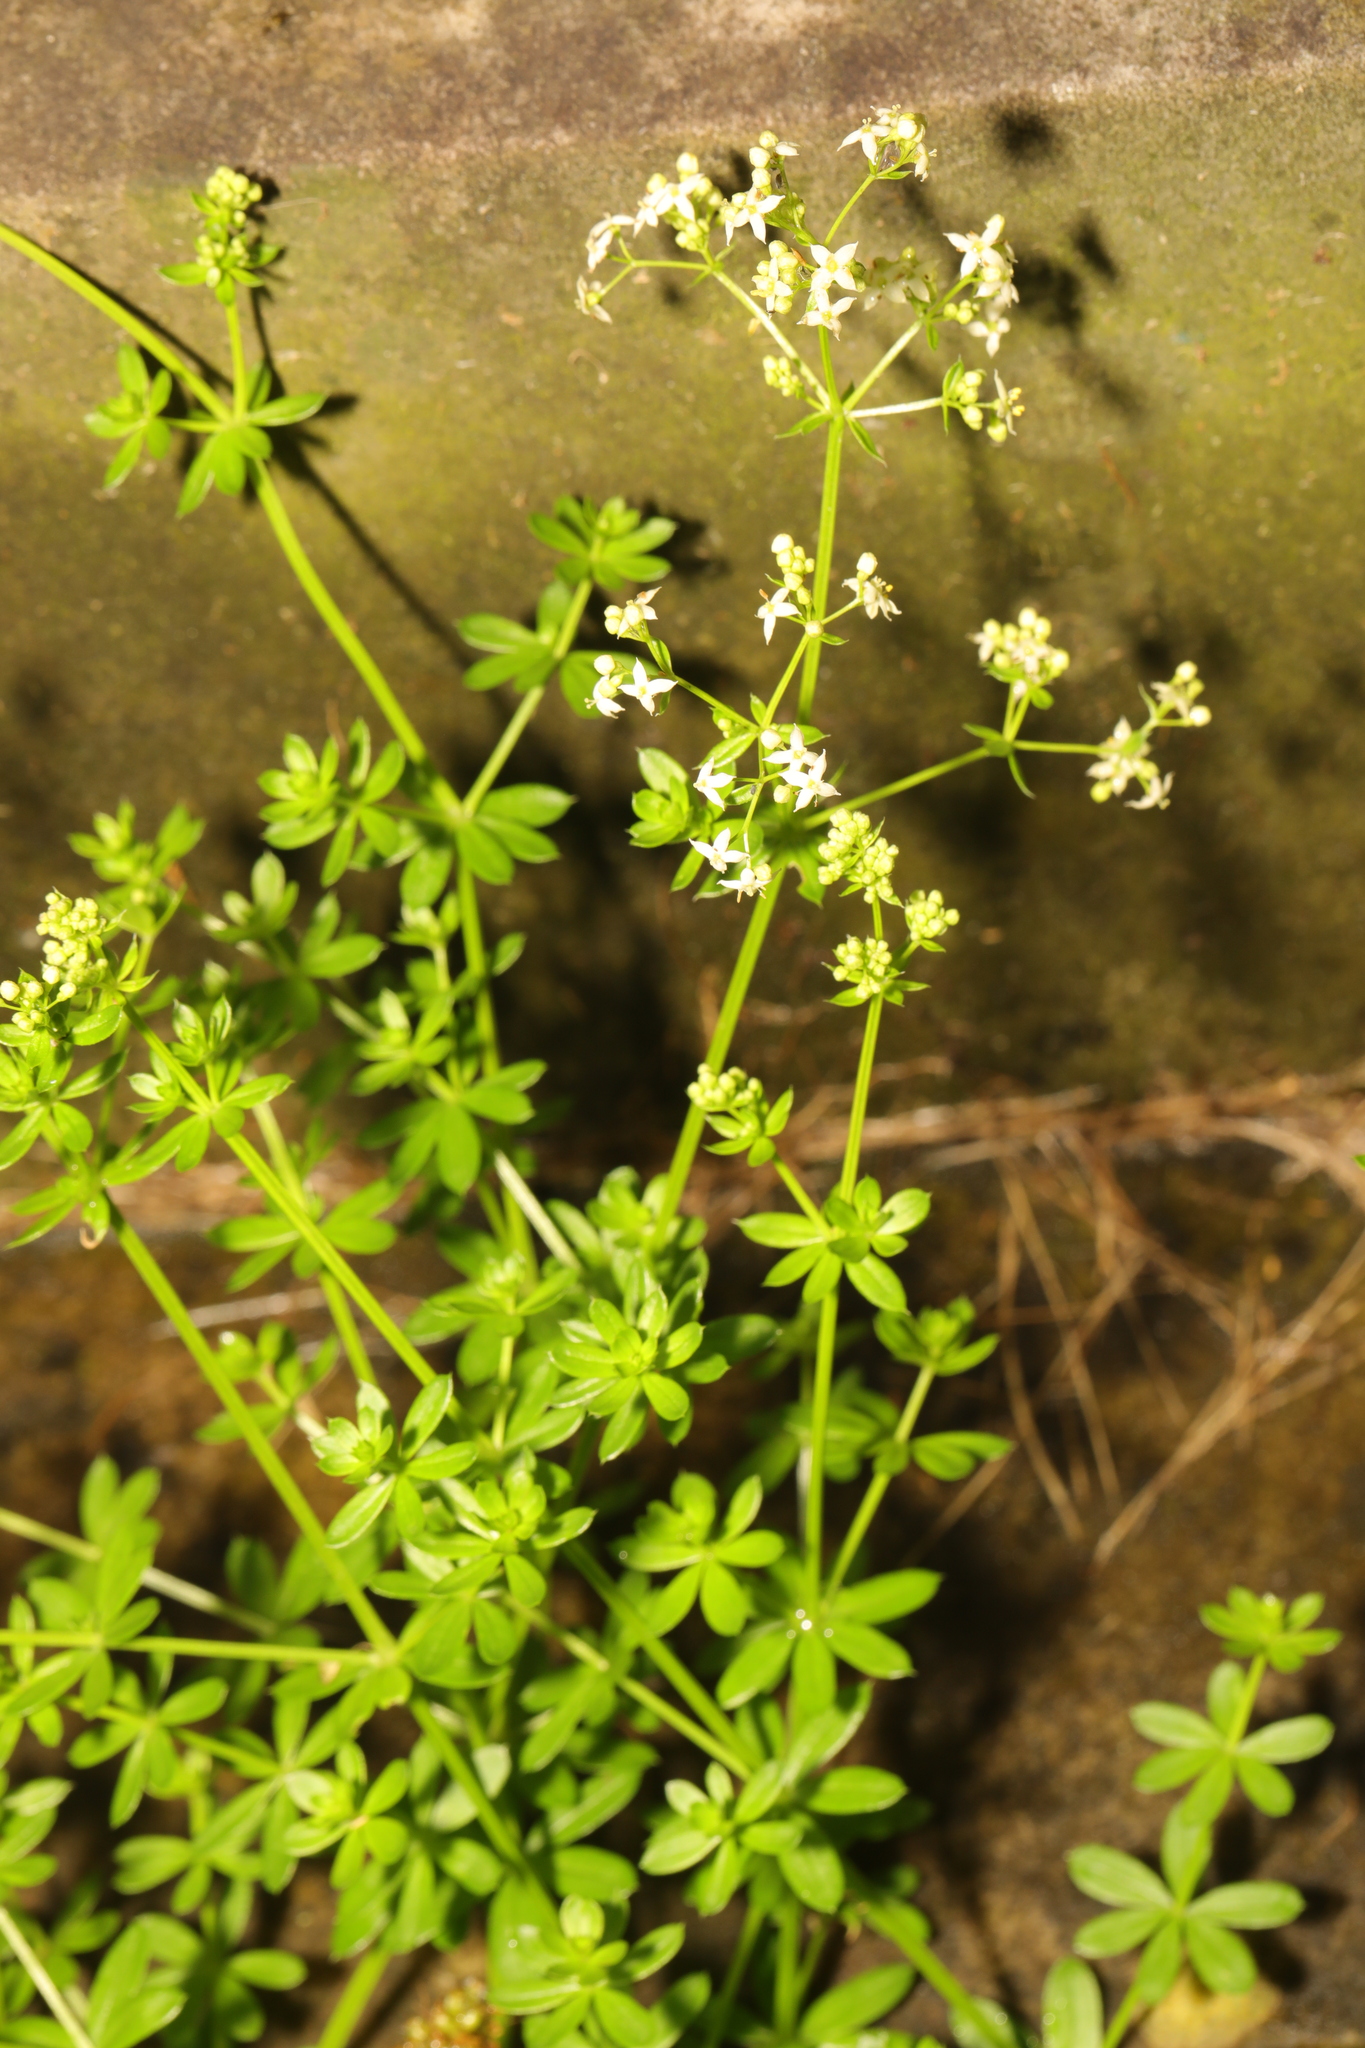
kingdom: Plantae
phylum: Tracheophyta
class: Magnoliopsida
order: Gentianales
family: Rubiaceae
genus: Galium
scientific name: Galium mollugo
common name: Hedge bedstraw
